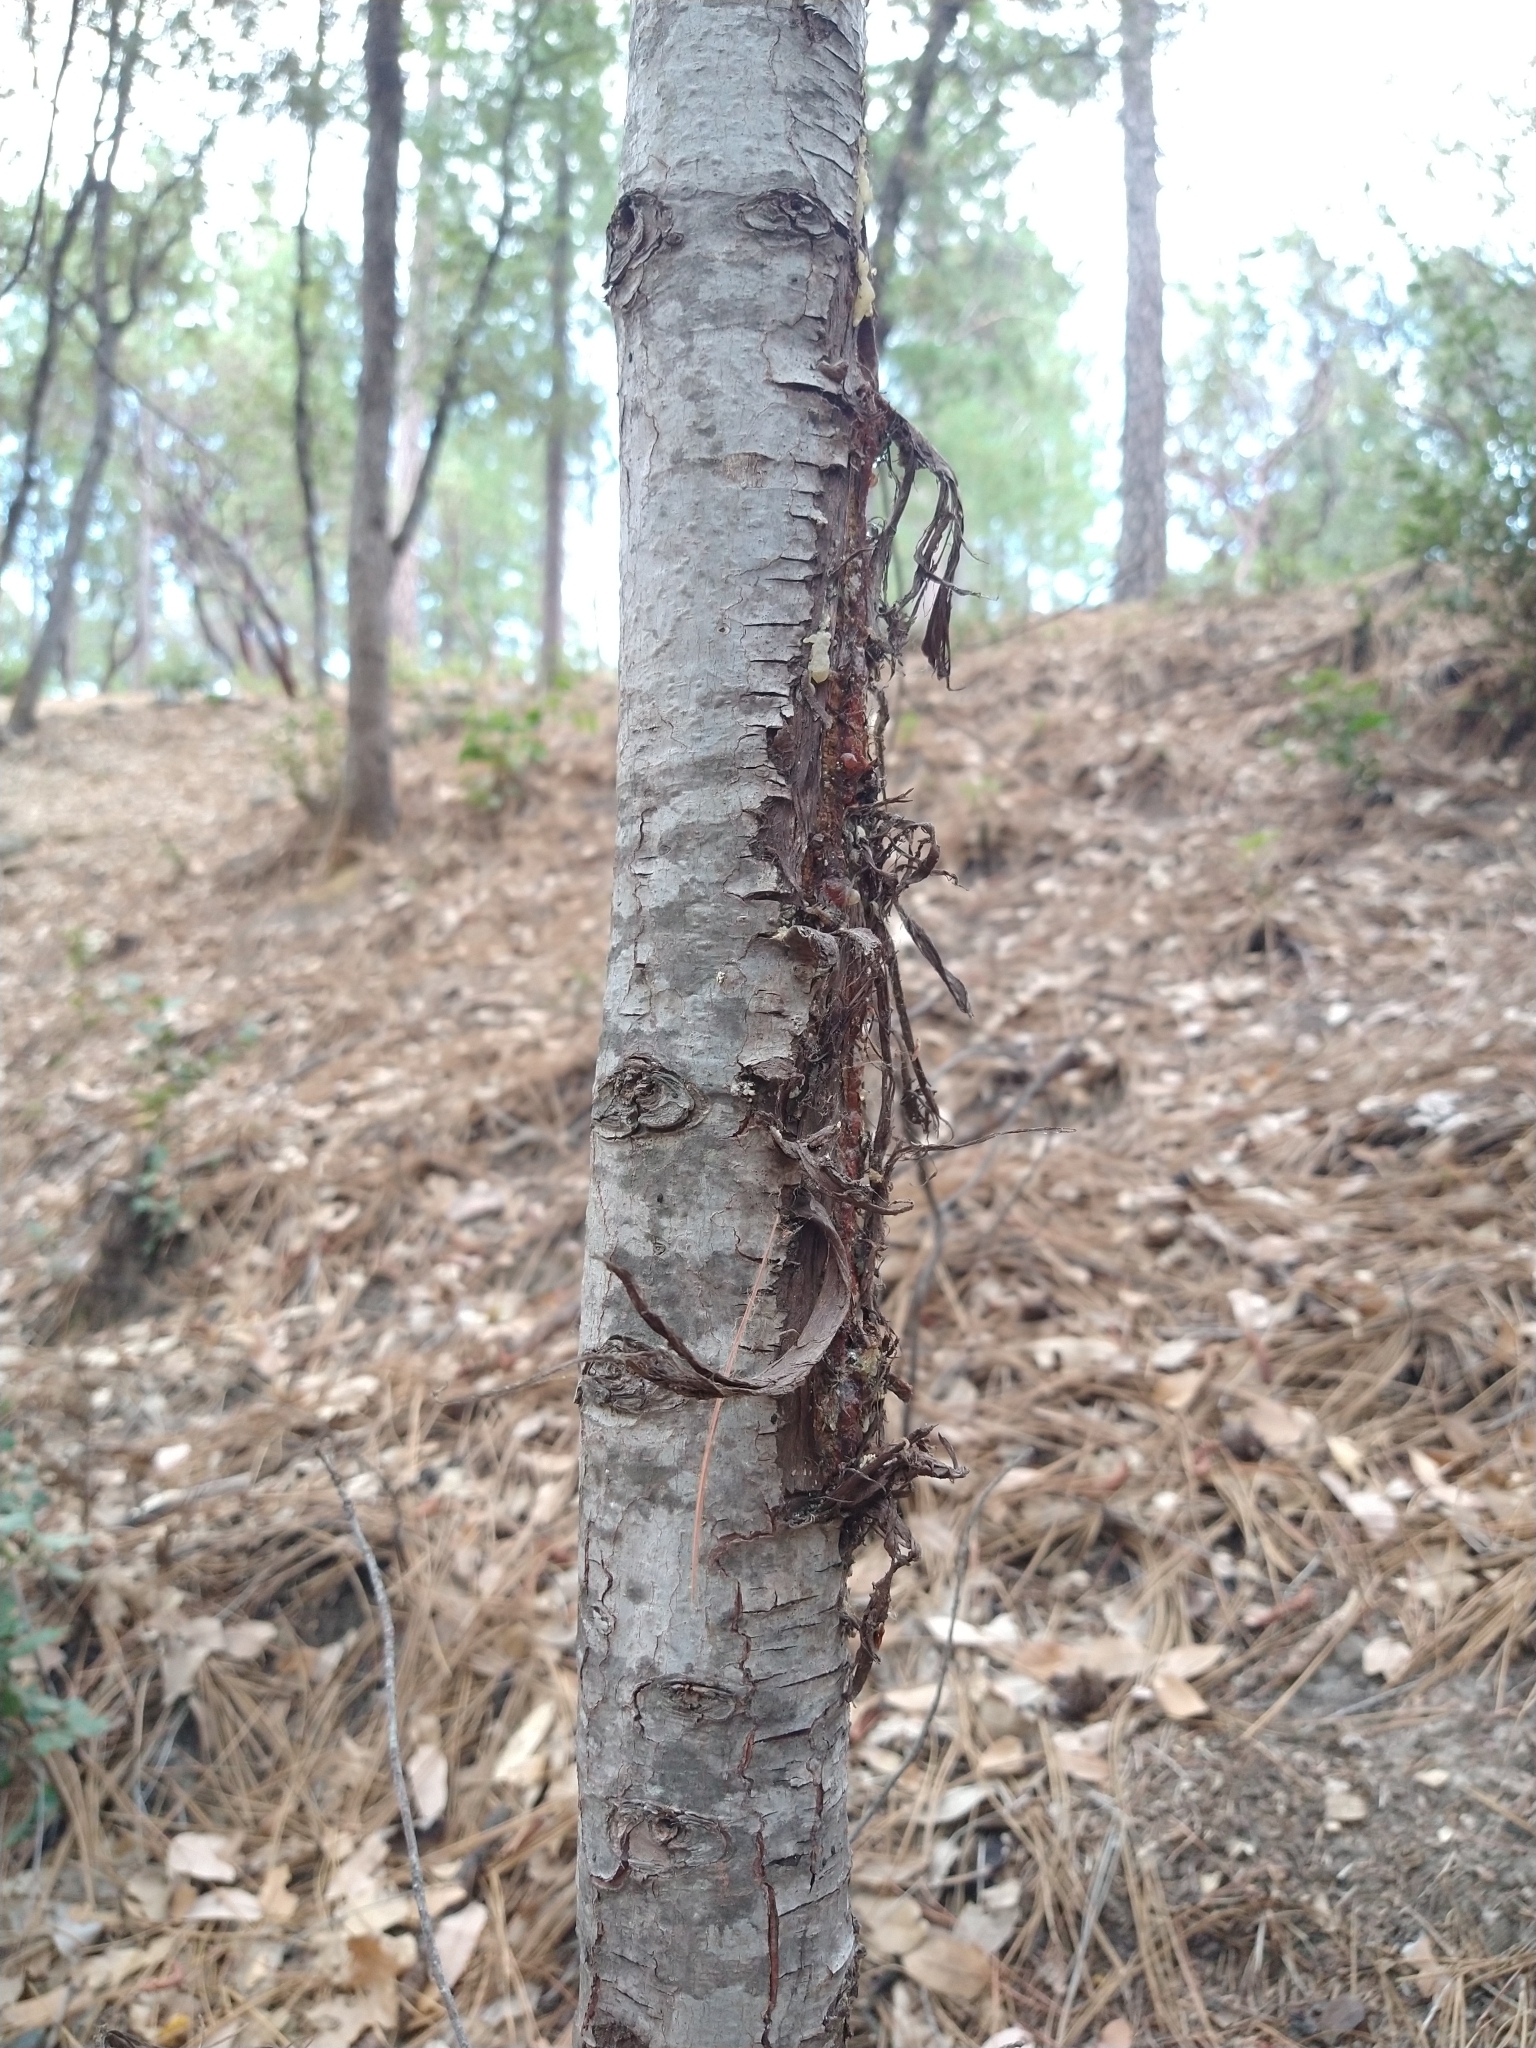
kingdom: Animalia
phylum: Chordata
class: Mammalia
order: Artiodactyla
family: Cervidae
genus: Odocoileus
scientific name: Odocoileus hemionus
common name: Mule deer
